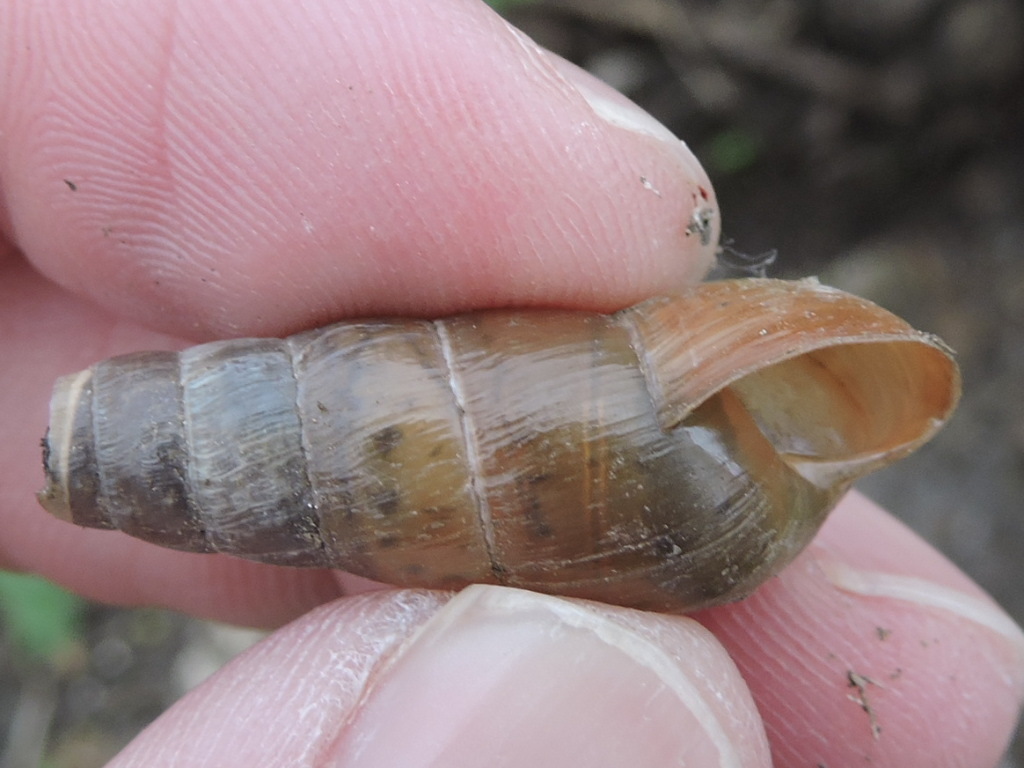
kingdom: Animalia
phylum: Mollusca
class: Gastropoda
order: Stylommatophora
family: Achatinidae
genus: Rumina
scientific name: Rumina decollata
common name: Decollate snail
